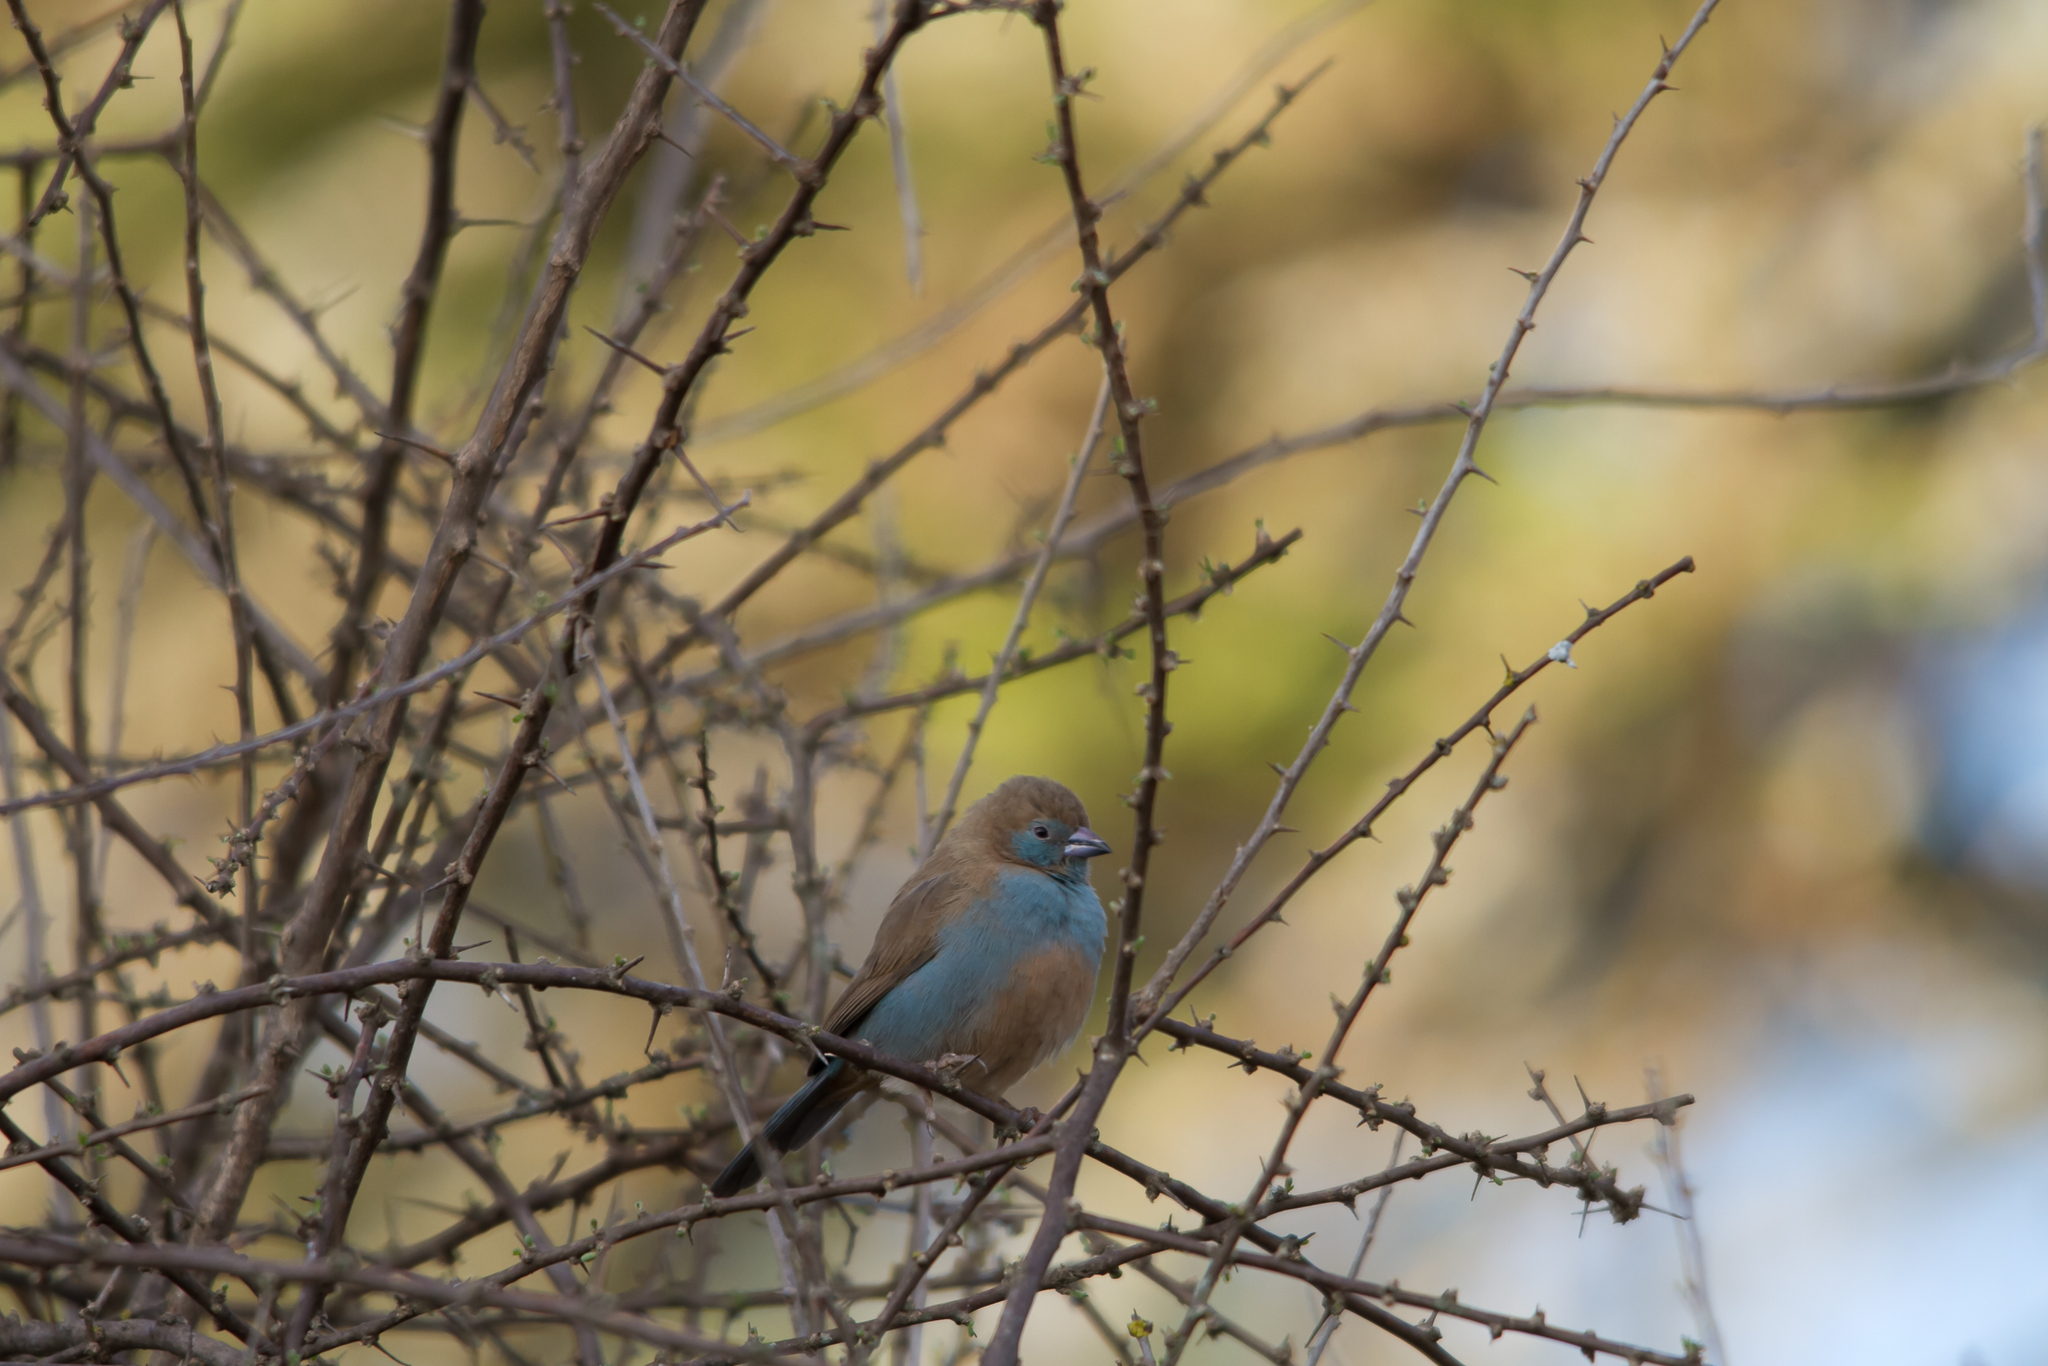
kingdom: Animalia
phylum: Chordata
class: Aves
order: Passeriformes
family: Estrildidae
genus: Uraeginthus
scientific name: Uraeginthus bengalus
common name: Red-cheeked cordon-bleu
